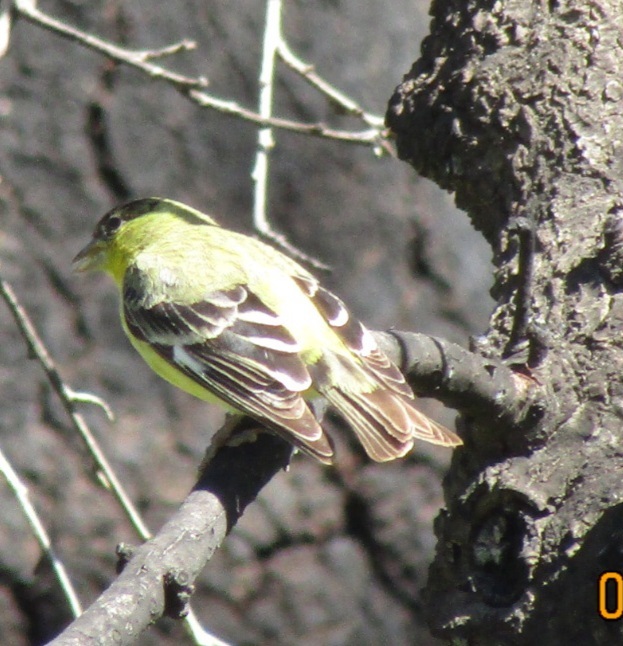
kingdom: Animalia
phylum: Chordata
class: Aves
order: Passeriformes
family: Fringillidae
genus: Spinus
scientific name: Spinus psaltria
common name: Lesser goldfinch
